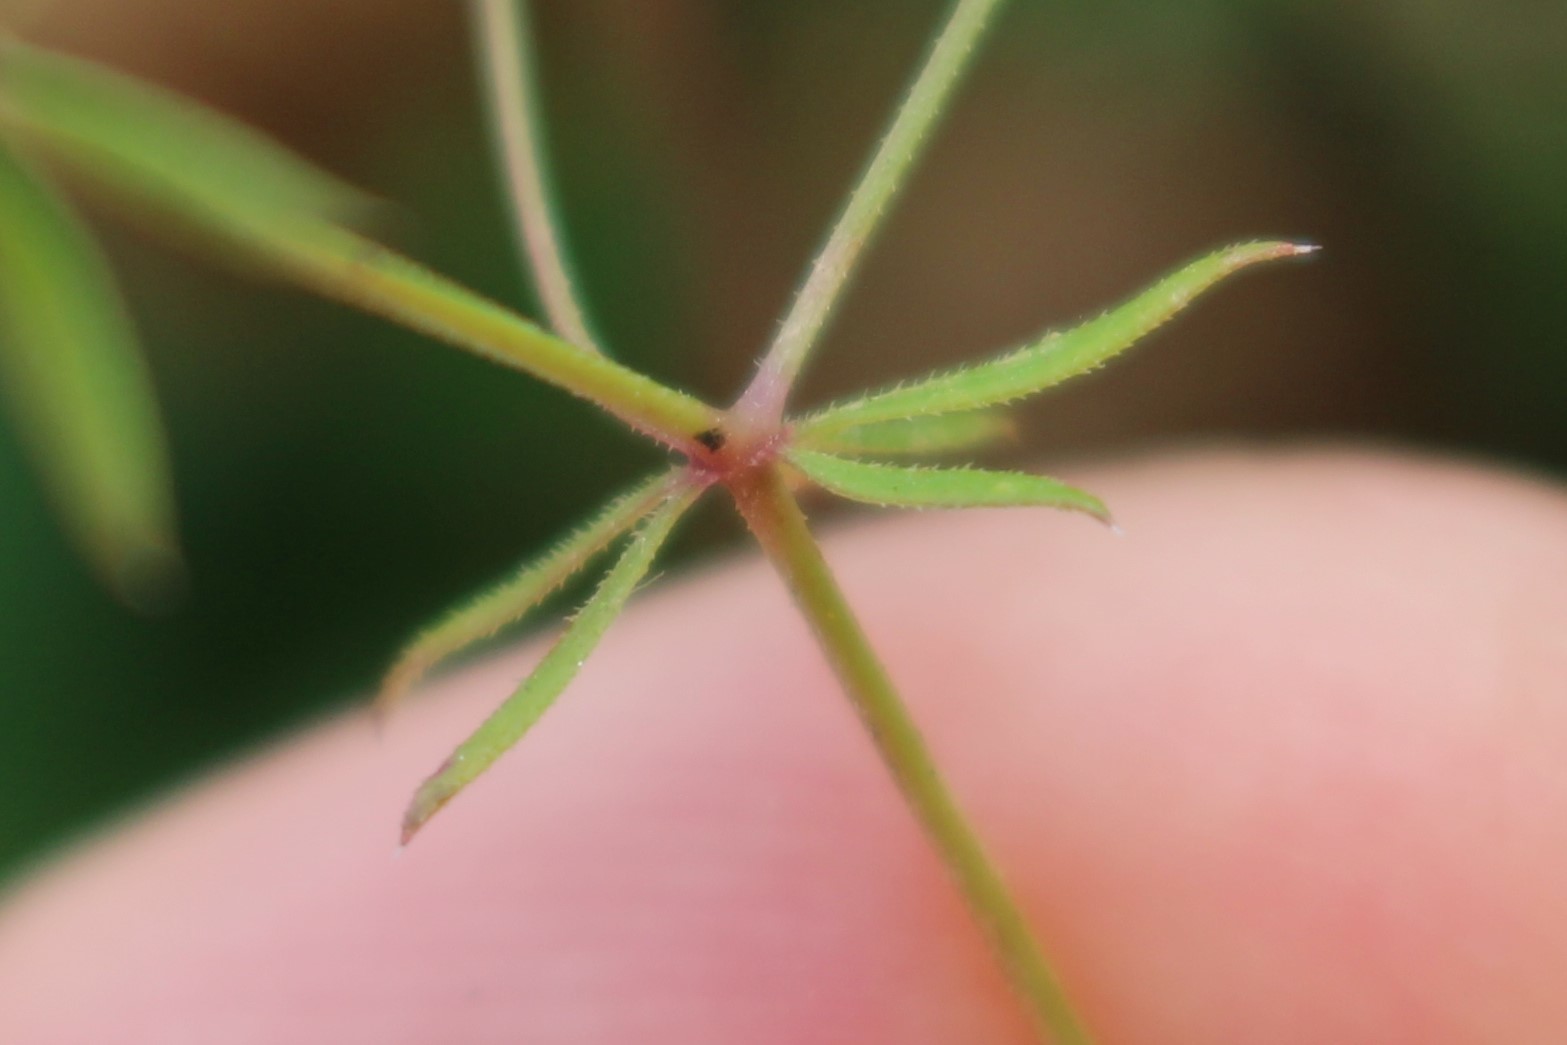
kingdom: Plantae
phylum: Tracheophyta
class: Magnoliopsida
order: Gentianales
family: Rubiaceae
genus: Galium
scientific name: Galium divaricatum
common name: Lamarck's bedstraw
